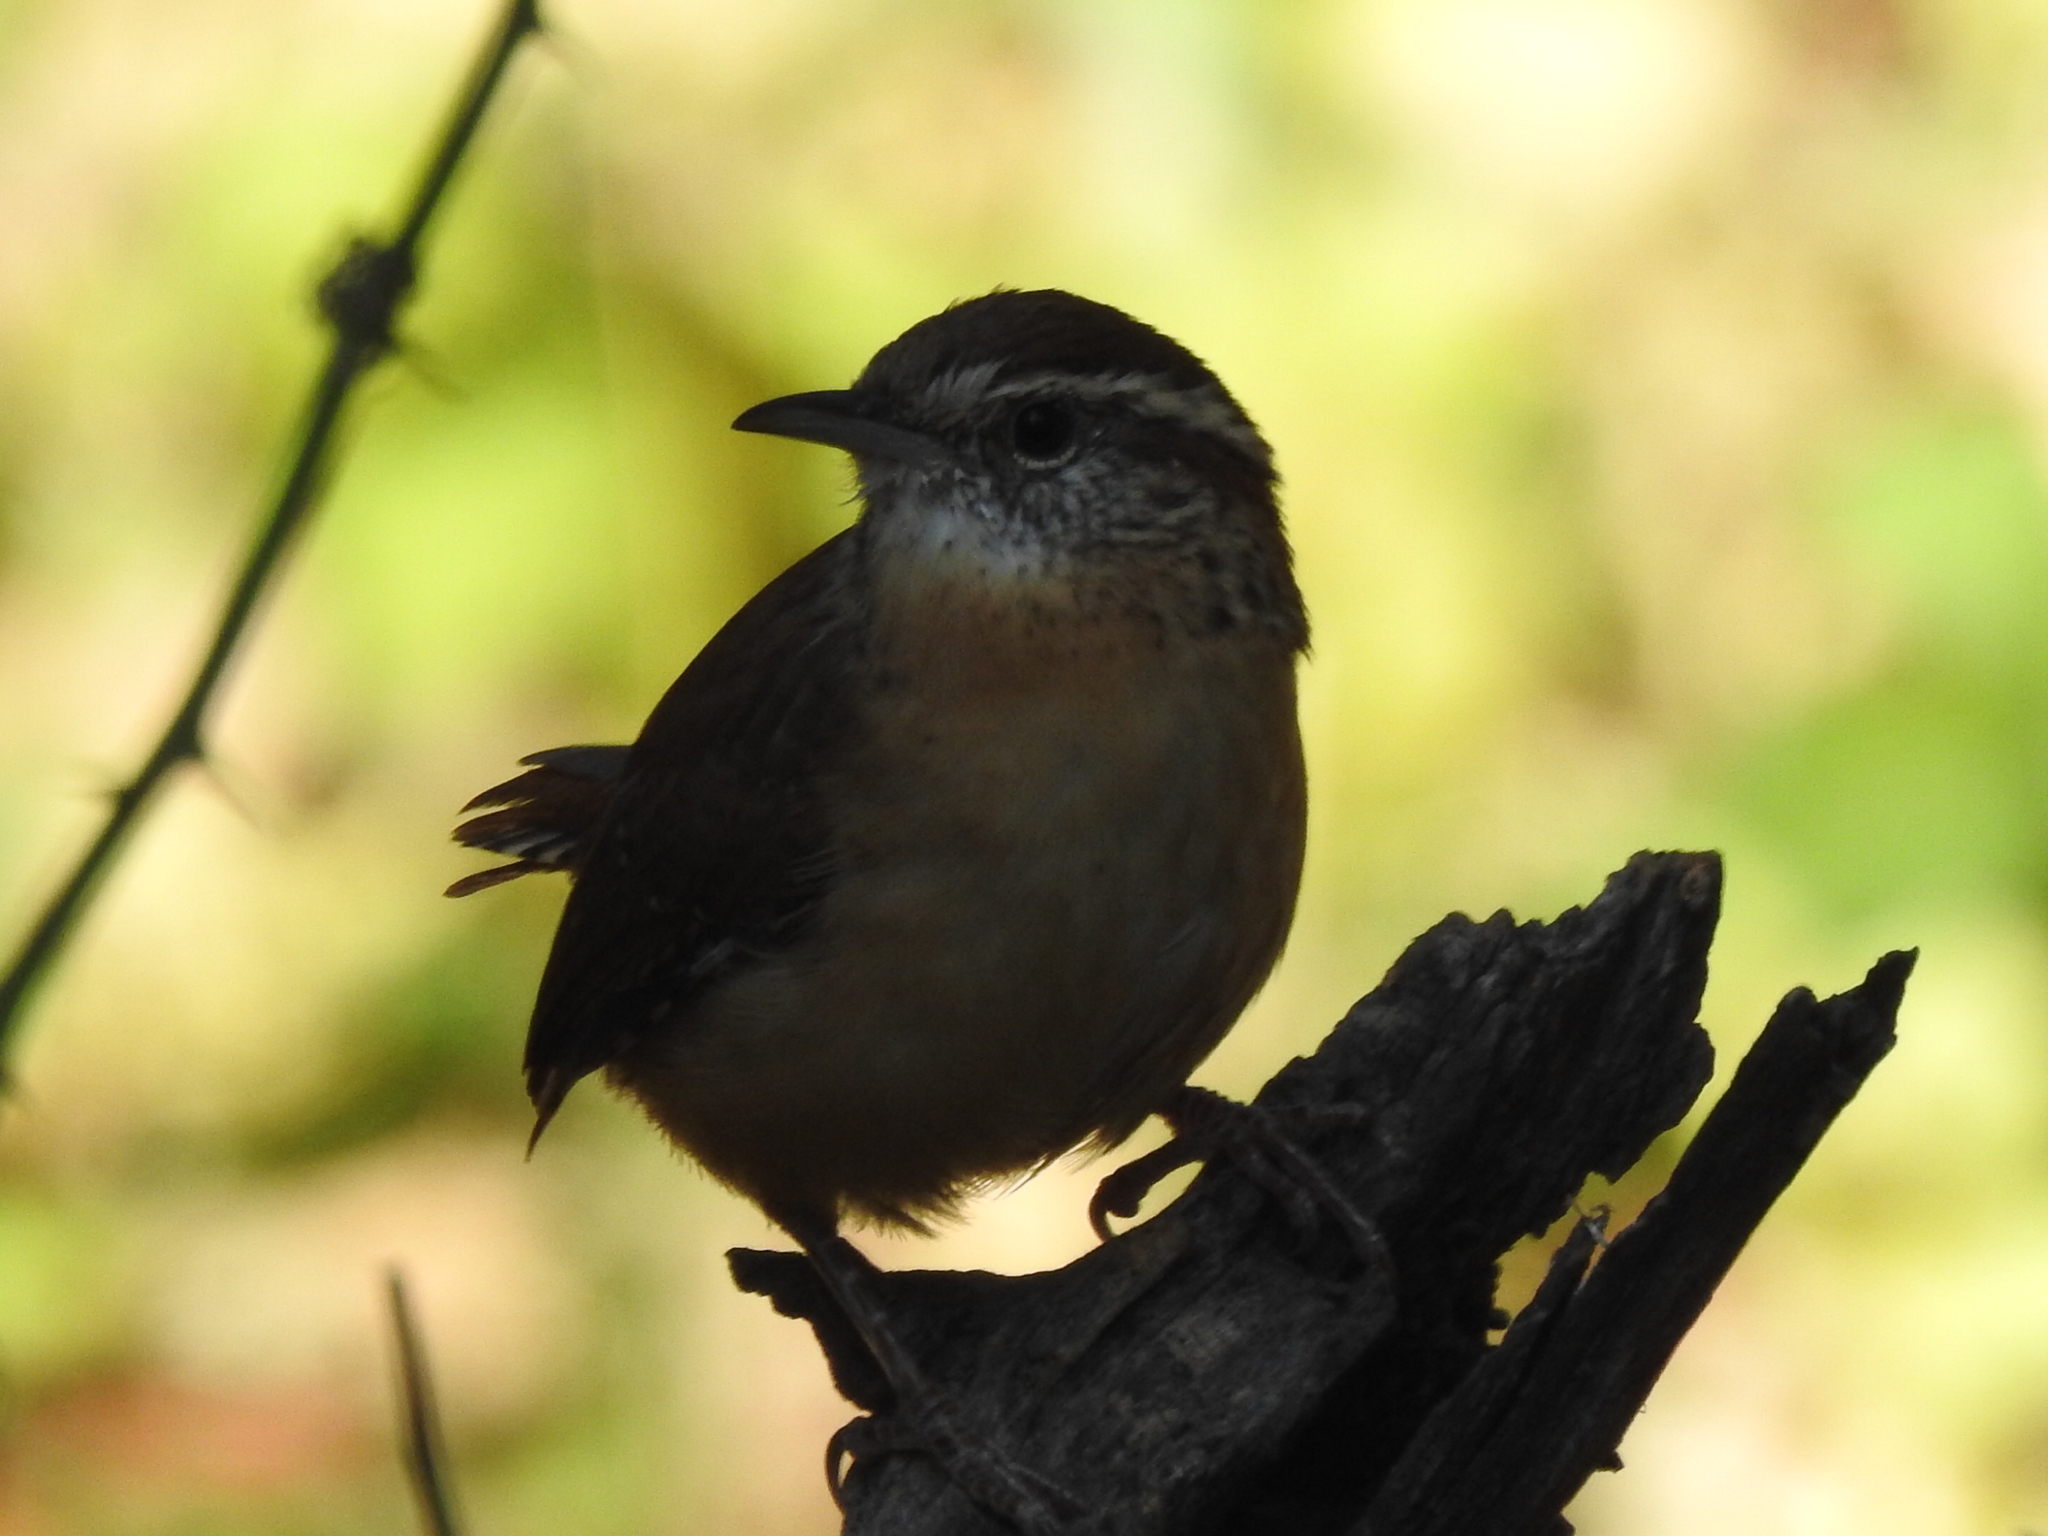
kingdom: Animalia
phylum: Chordata
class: Aves
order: Passeriformes
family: Troglodytidae
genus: Thryothorus
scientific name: Thryothorus ludovicianus
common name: Carolina wren
